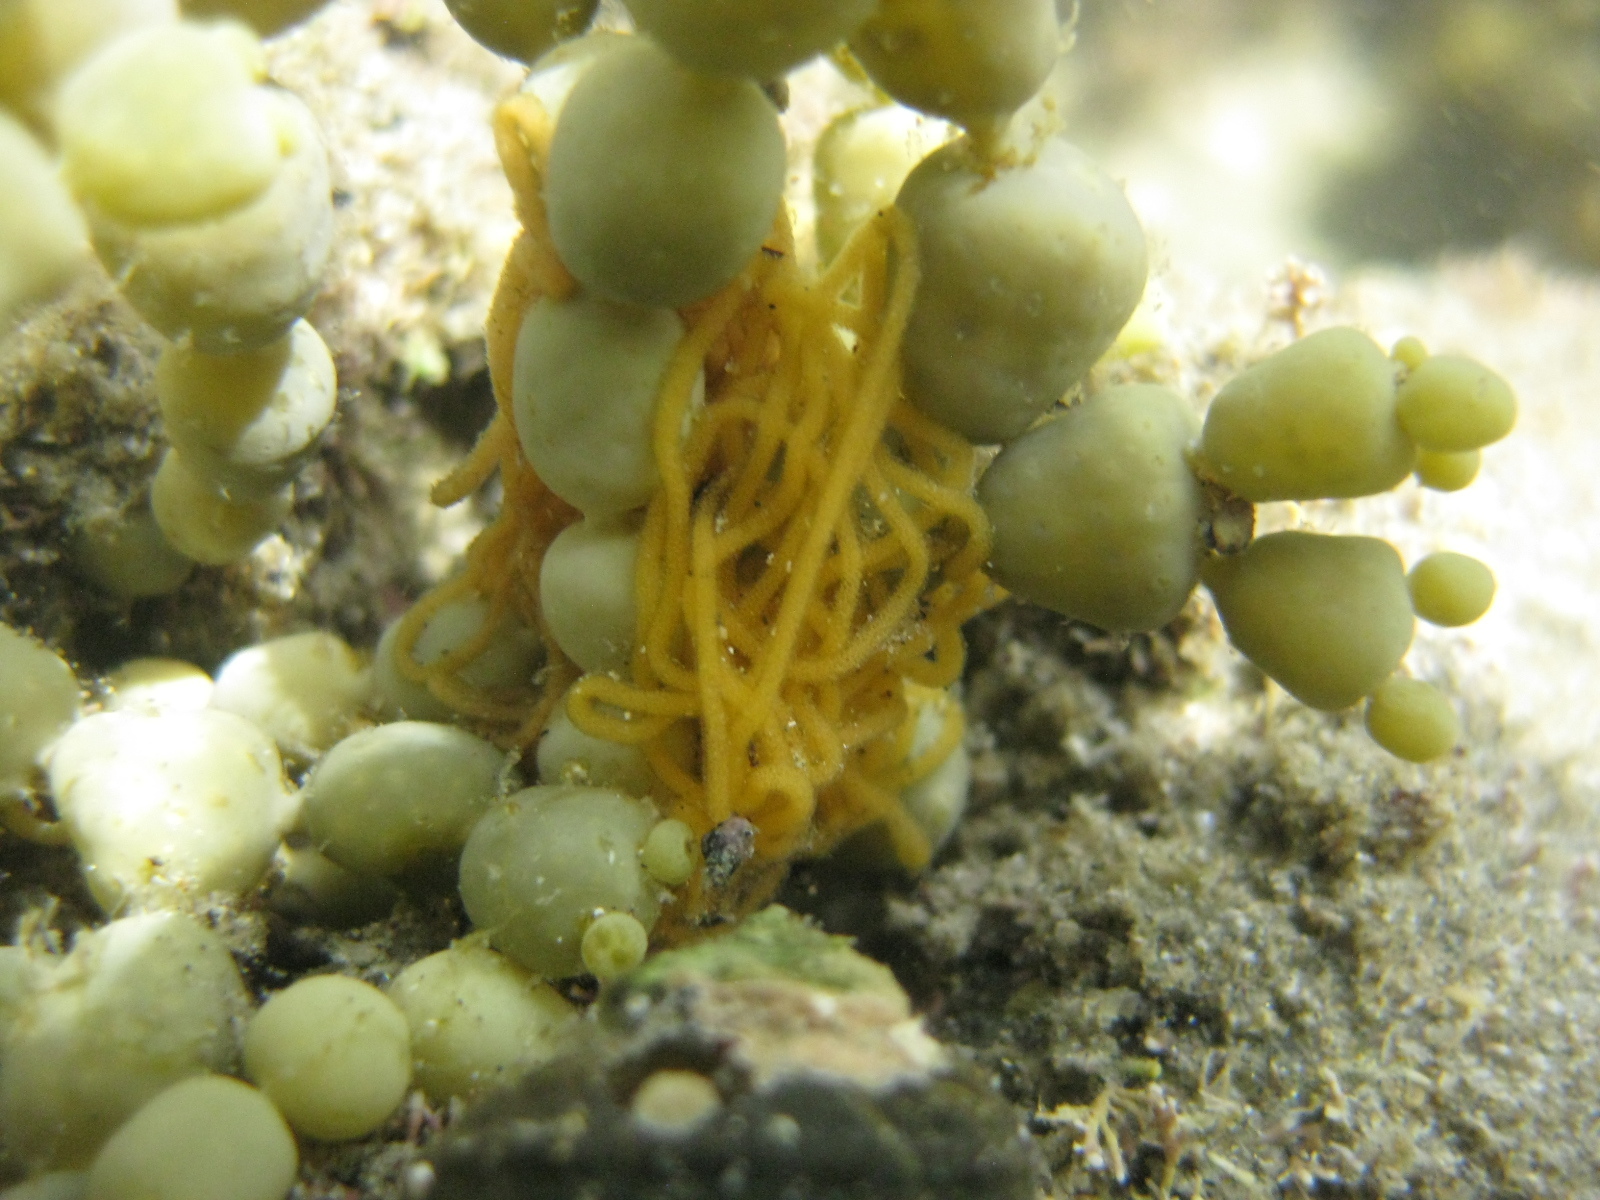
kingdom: Animalia
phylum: Mollusca
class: Gastropoda
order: Aplysiida
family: Aplysiidae
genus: Aplysia
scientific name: Aplysia
